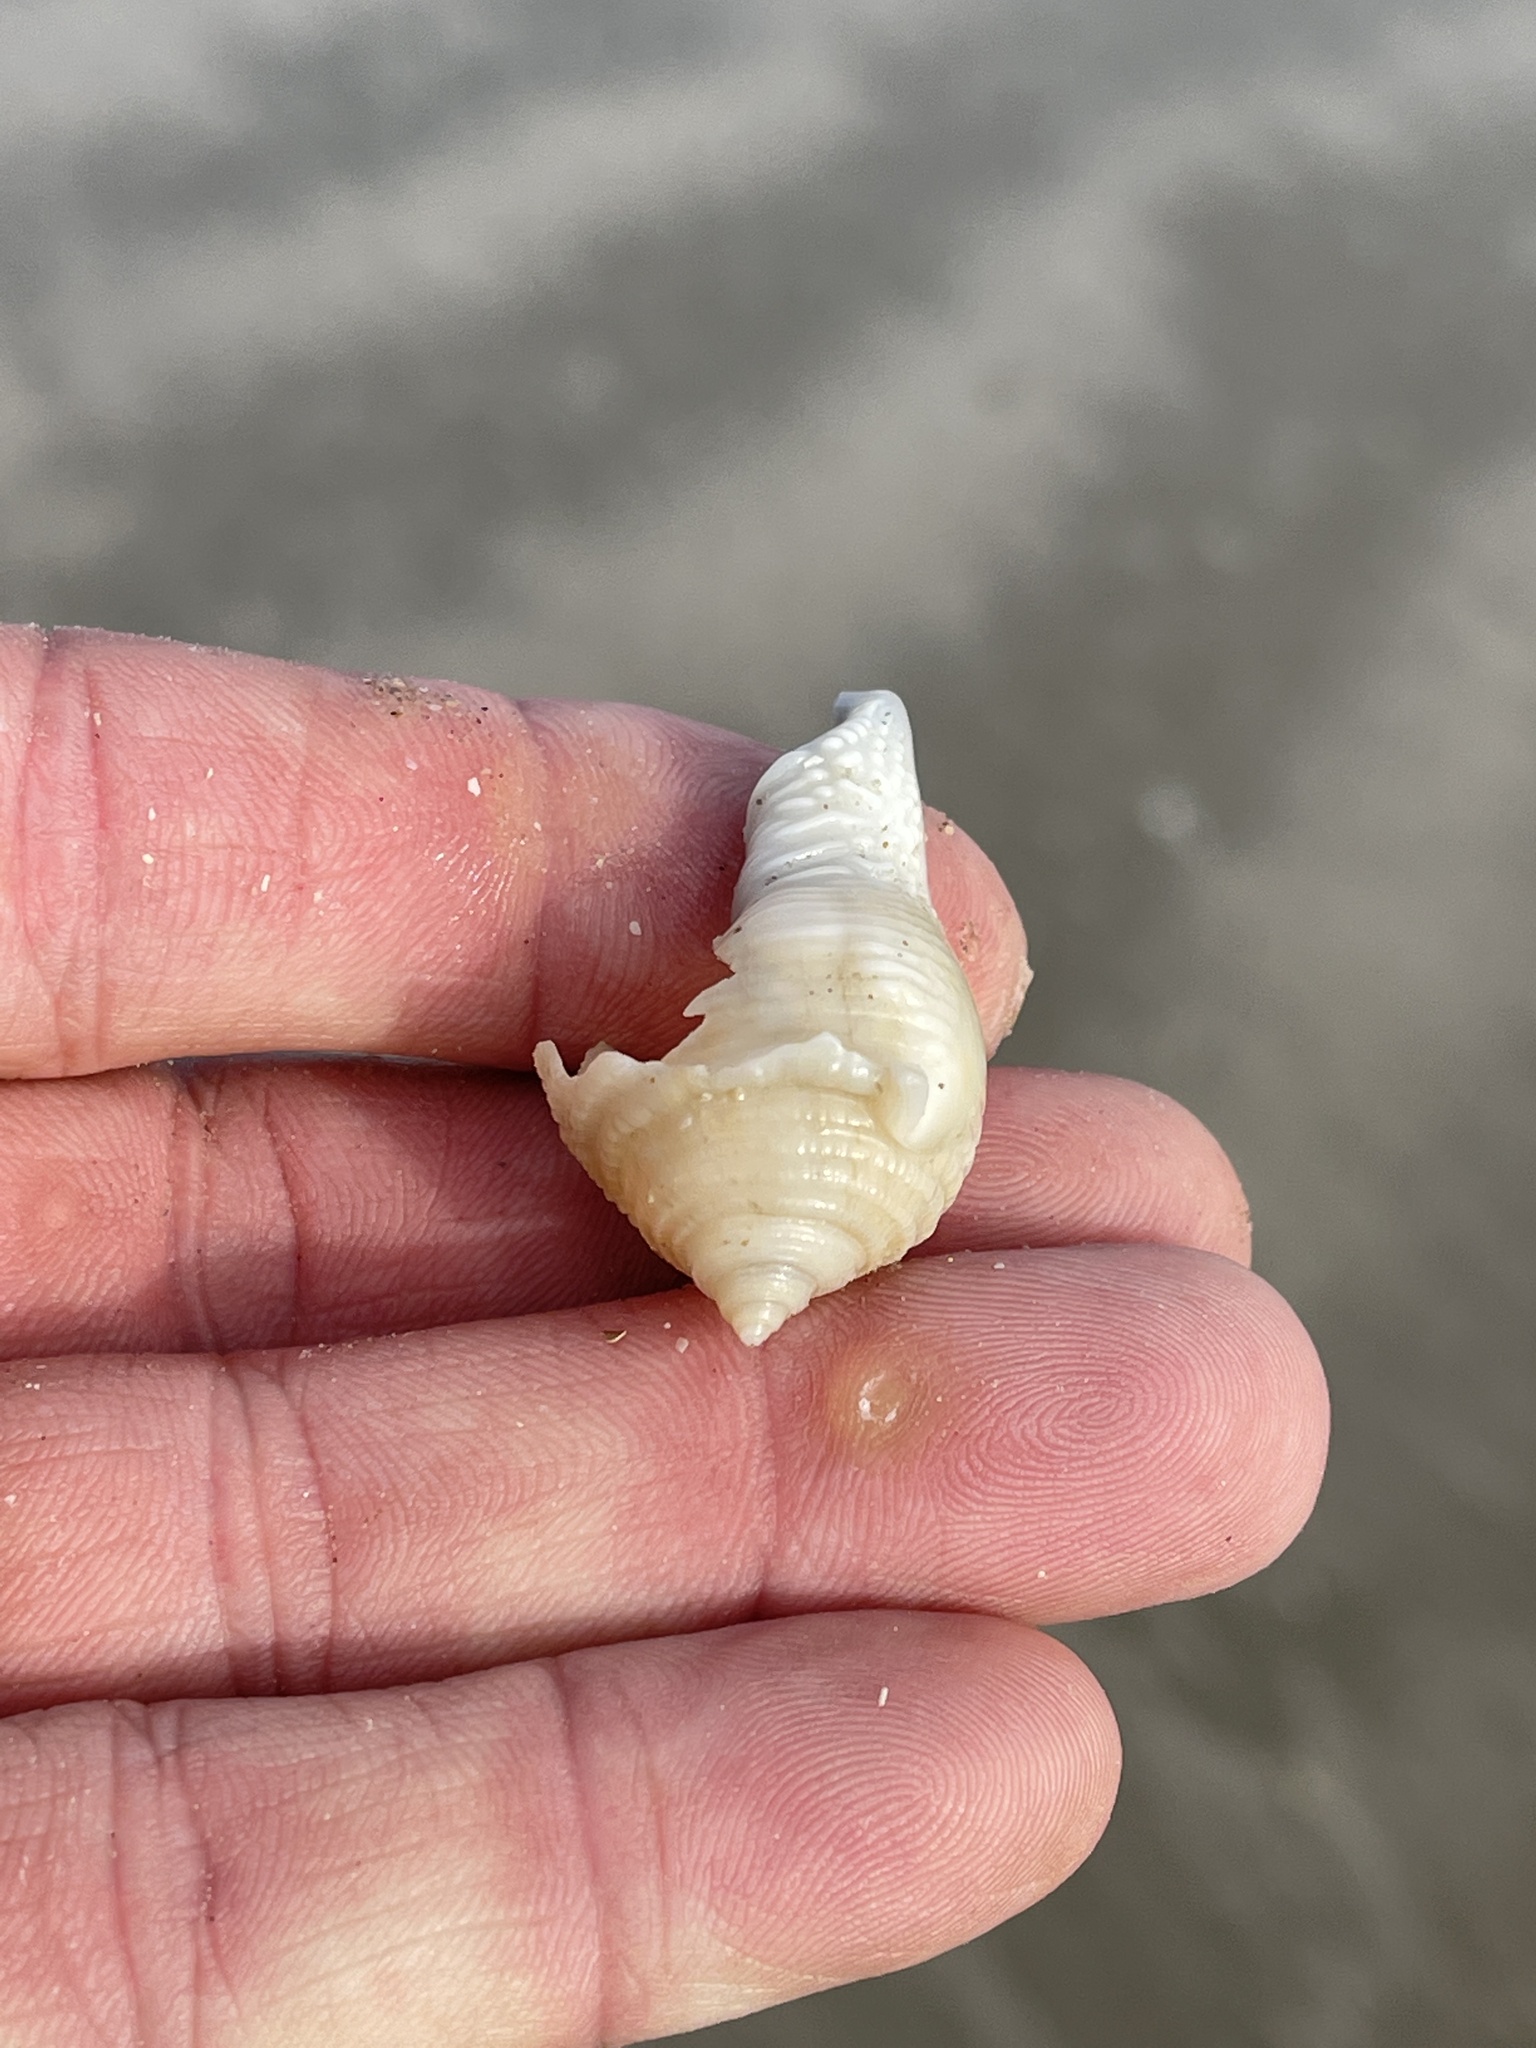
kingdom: Animalia
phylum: Mollusca
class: Gastropoda
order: Littorinimorpha
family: Cassidae
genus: Semicassis
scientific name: Semicassis granulata
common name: Scotch bonnet
